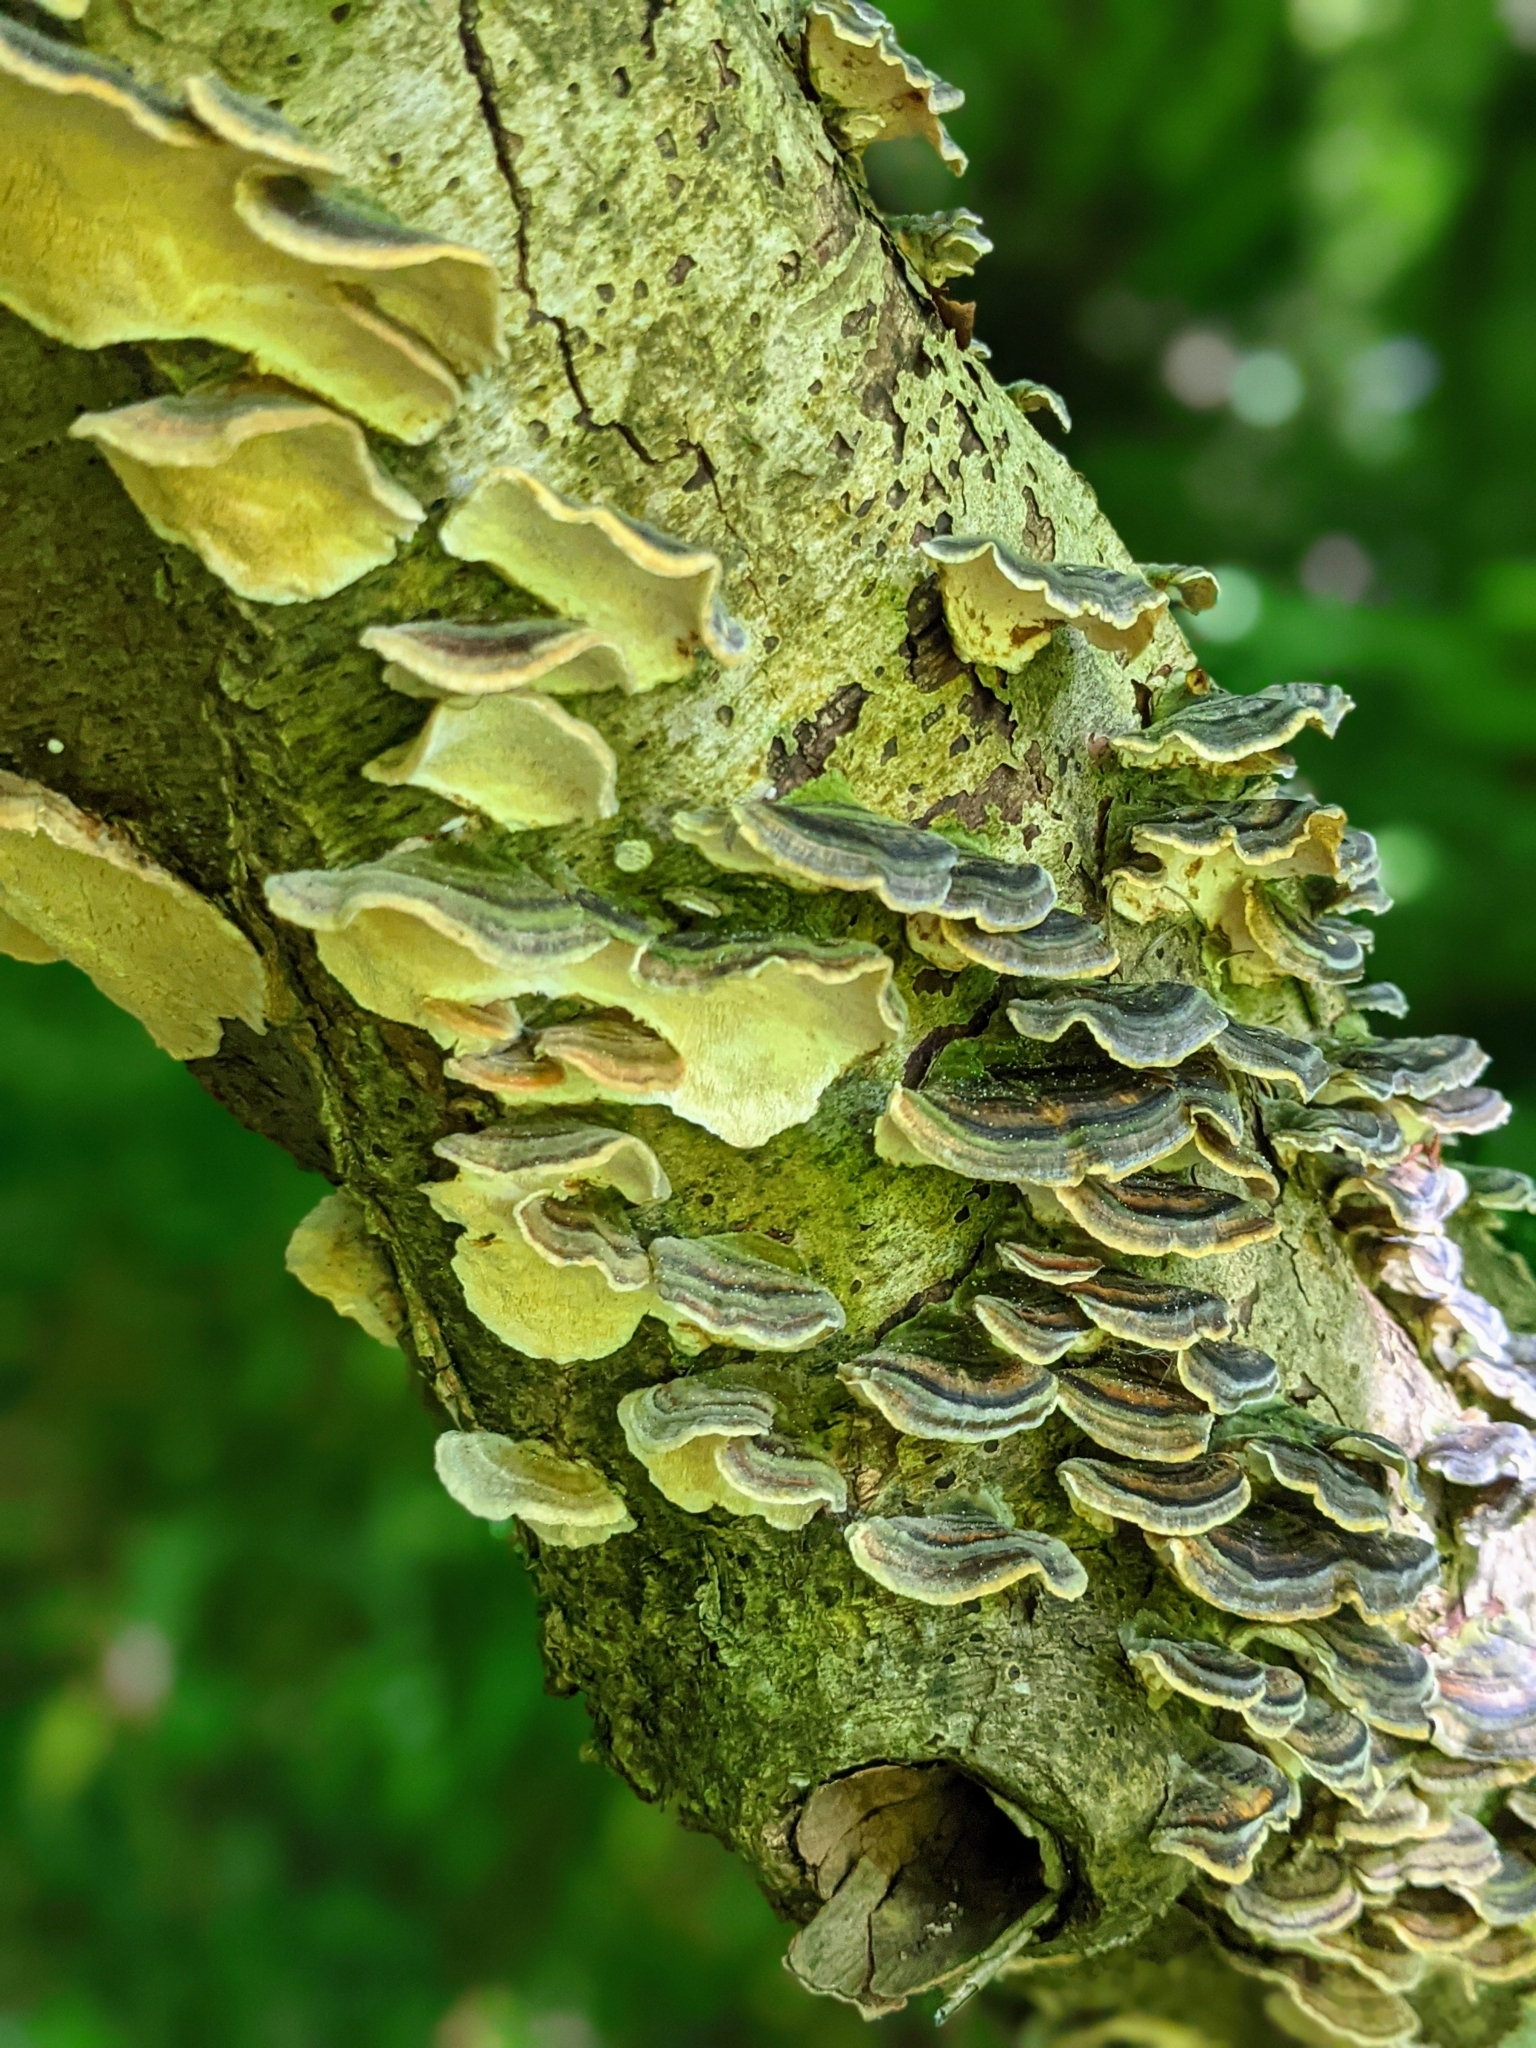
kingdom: Fungi
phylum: Basidiomycota
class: Agaricomycetes
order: Polyporales
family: Polyporaceae
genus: Trametes
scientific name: Trametes versicolor
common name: Turkeytail
